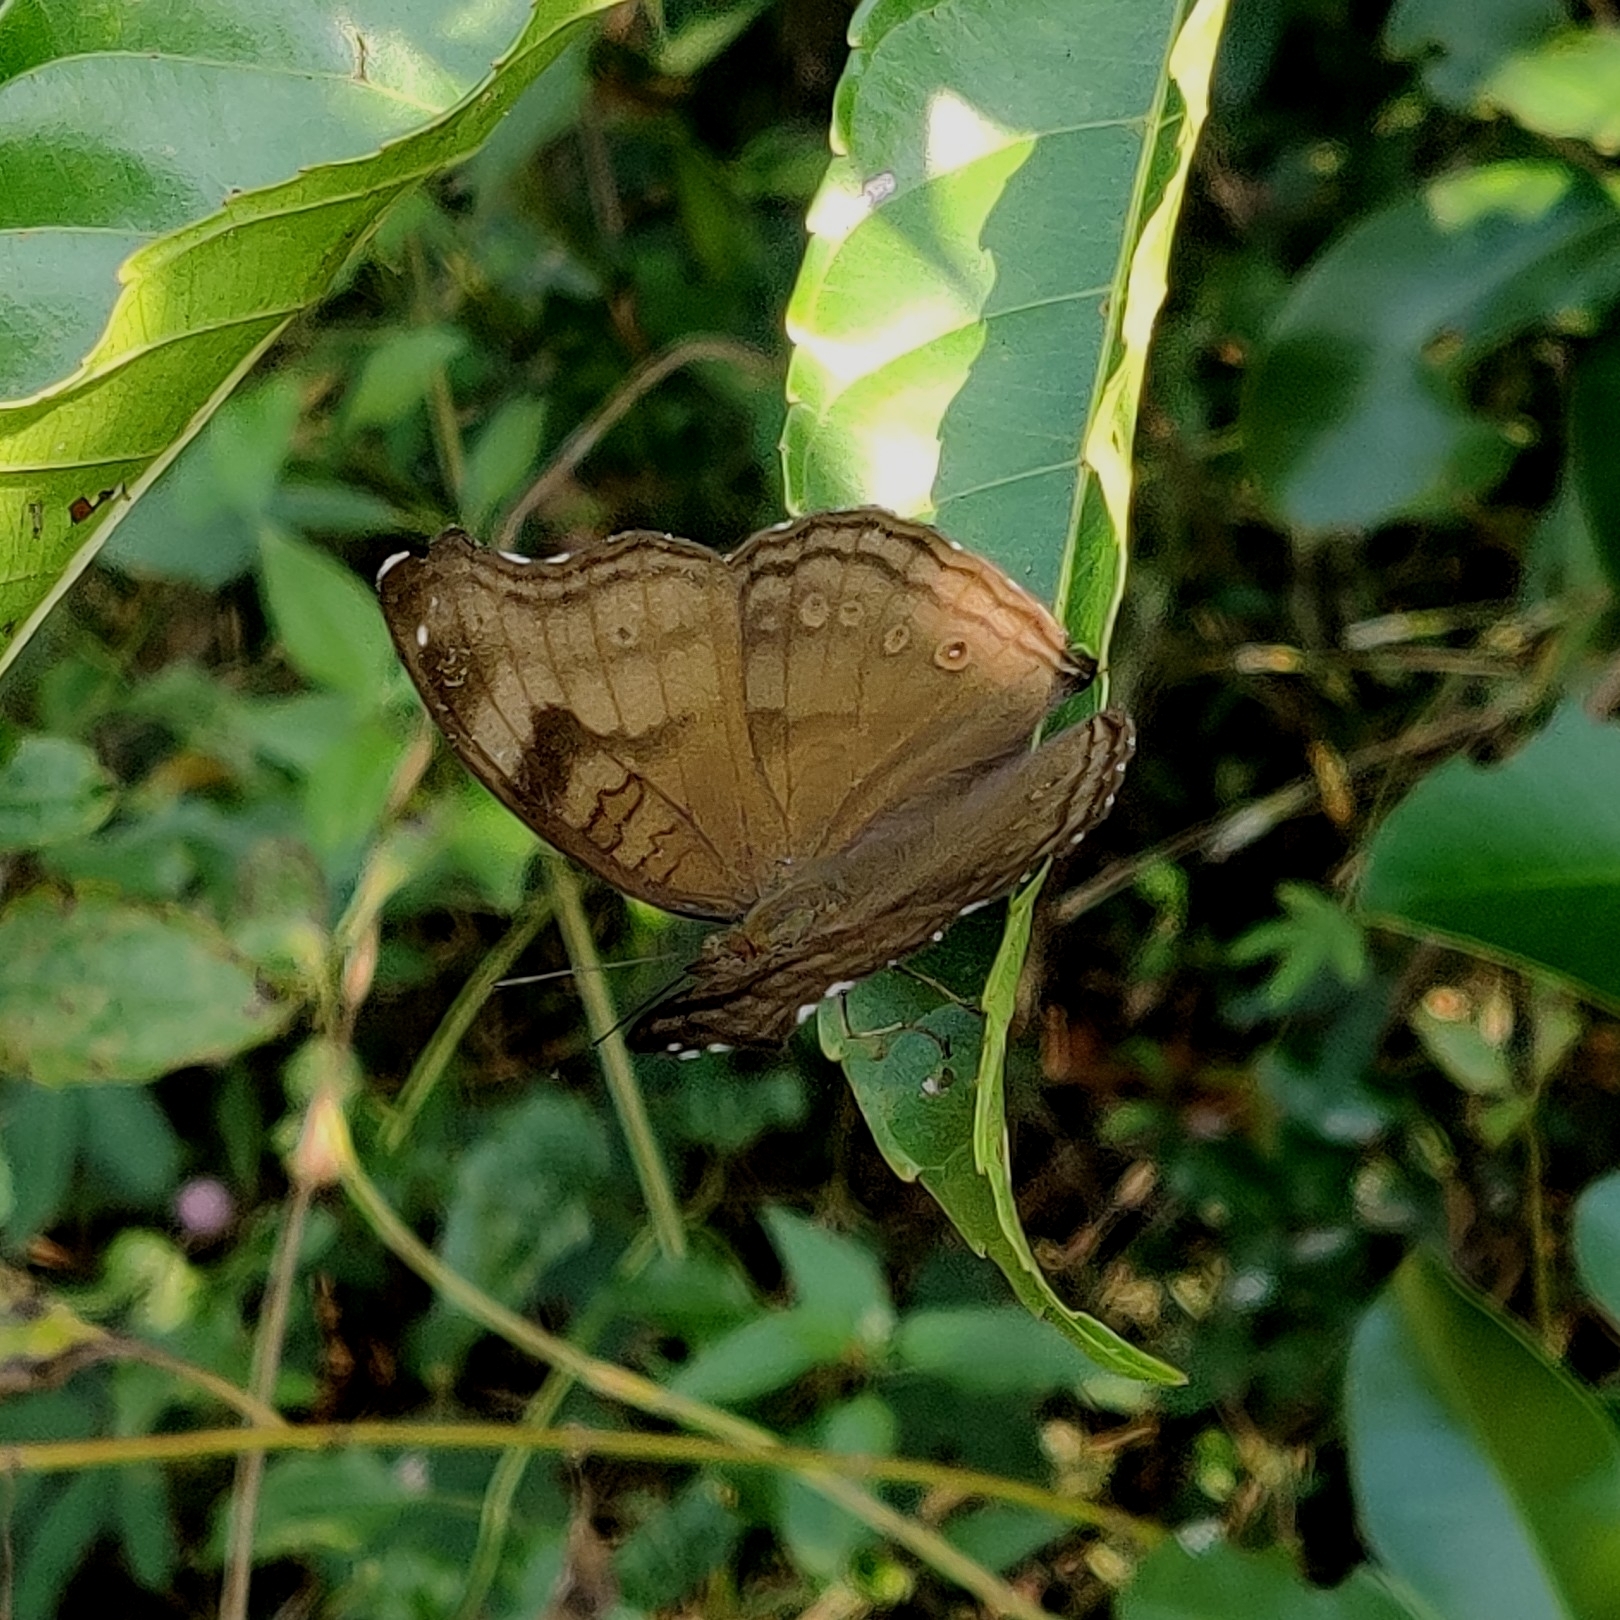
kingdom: Animalia
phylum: Arthropoda
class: Insecta
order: Lepidoptera
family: Nymphalidae
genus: Junonia
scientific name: Junonia iphita
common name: Chocolate pansy
